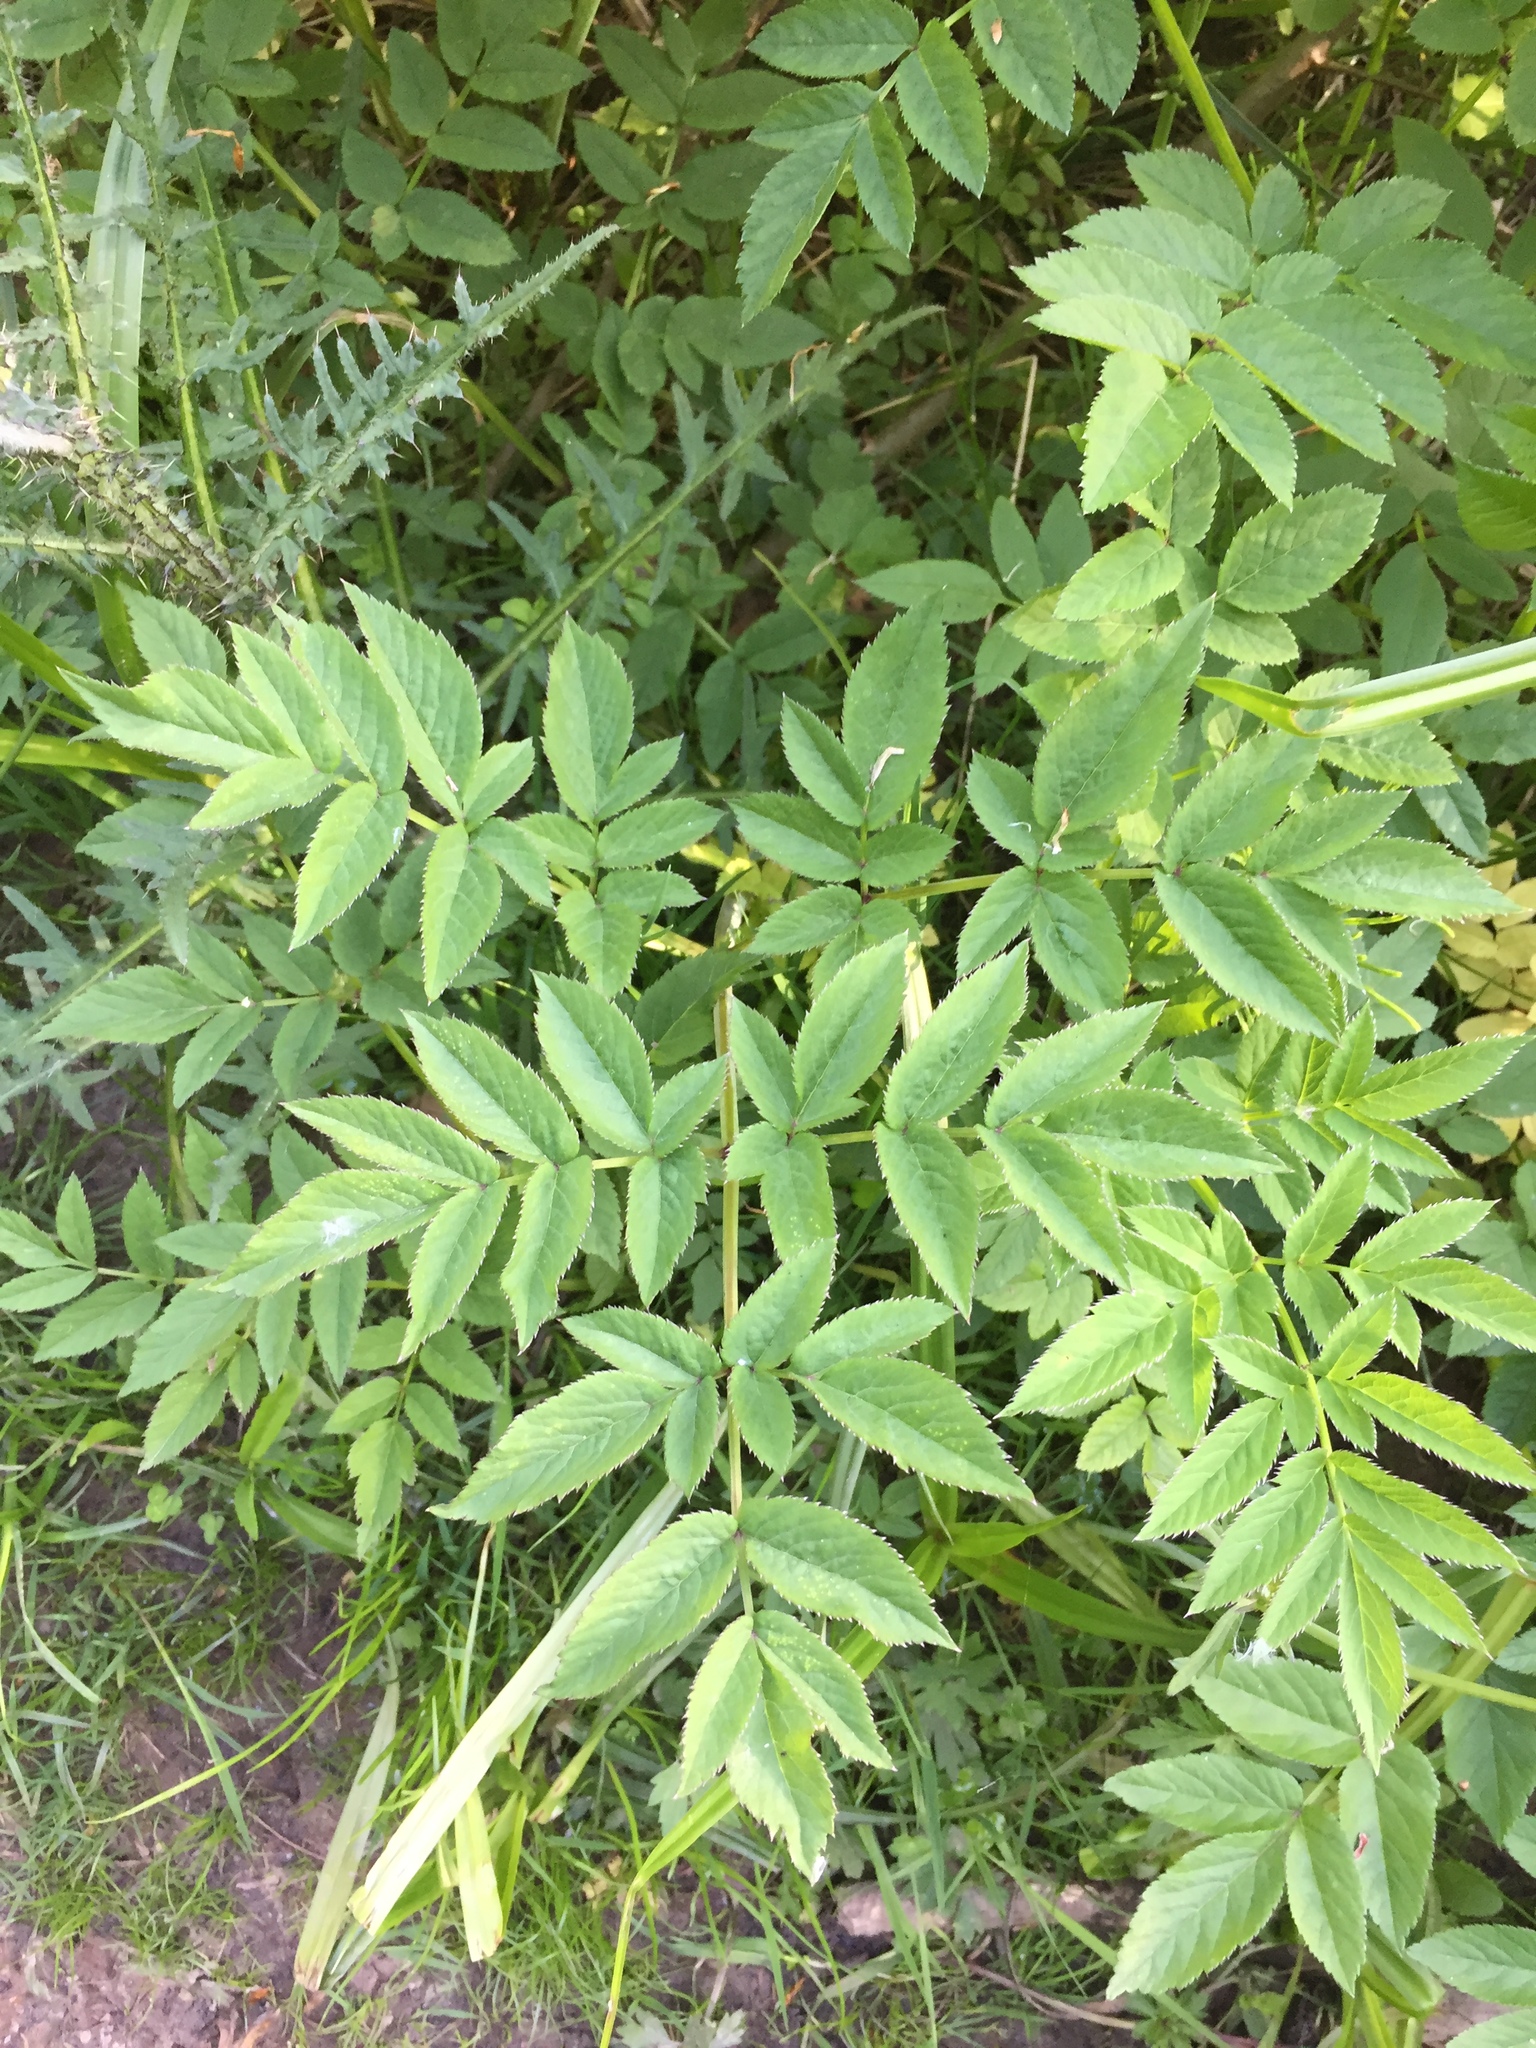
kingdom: Plantae
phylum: Tracheophyta
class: Magnoliopsida
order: Apiales
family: Apiaceae
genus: Angelica
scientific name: Angelica sylvestris
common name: Wild angelica
